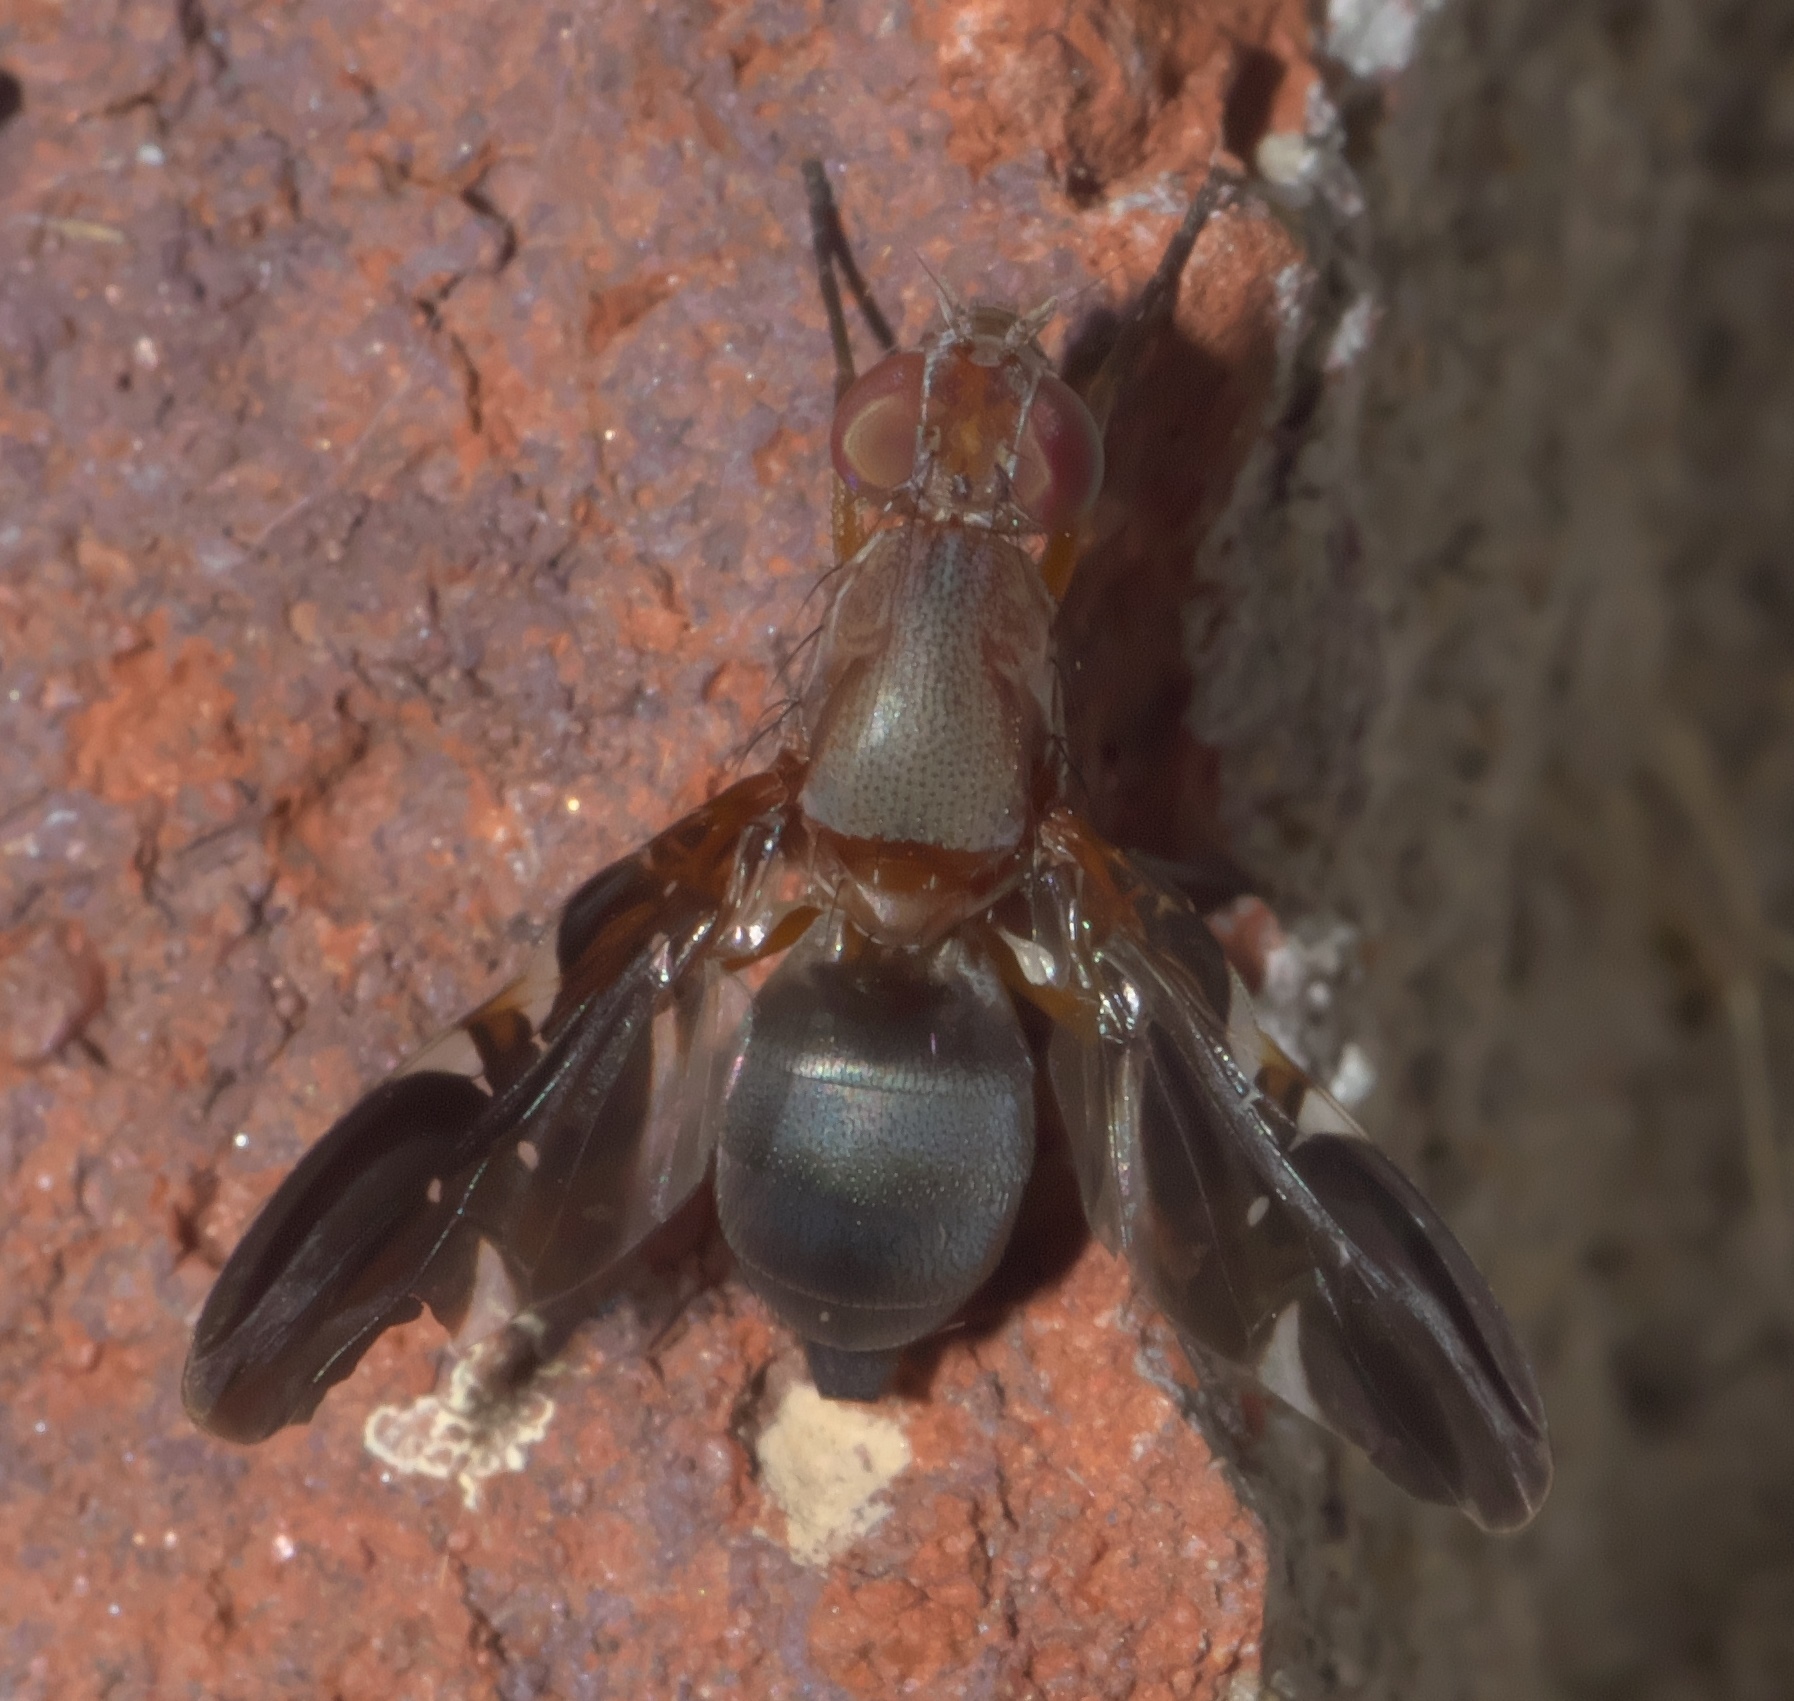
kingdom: Animalia
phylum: Arthropoda
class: Insecta
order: Diptera
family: Ulidiidae
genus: Delphinia
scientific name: Delphinia picta
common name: Common picture-winged fly
